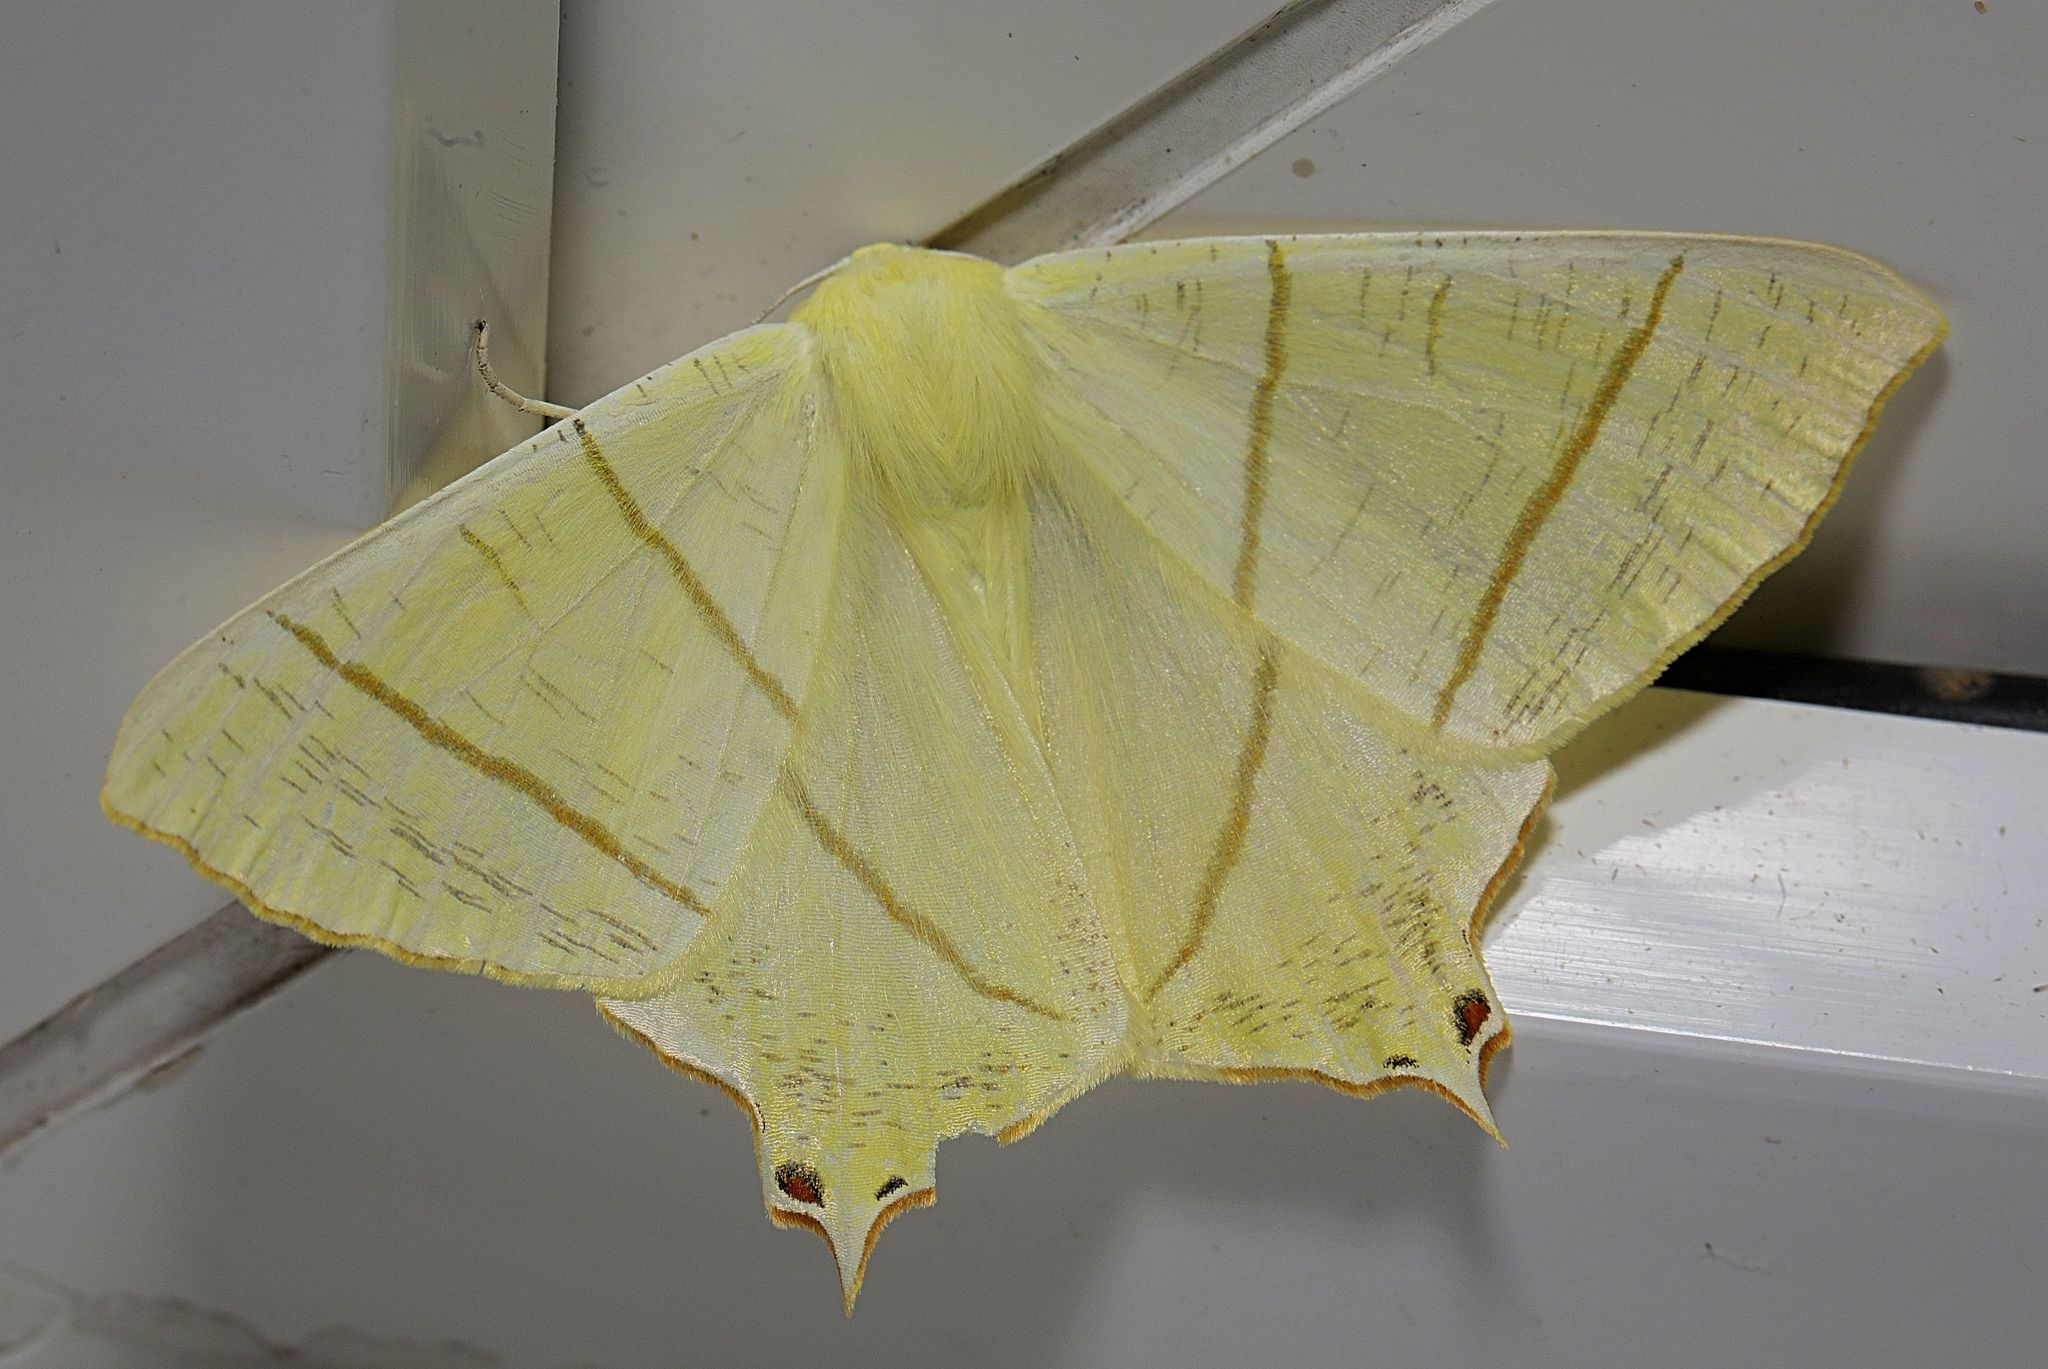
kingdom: Animalia
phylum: Arthropoda
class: Insecta
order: Lepidoptera
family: Geometridae
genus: Ourapteryx
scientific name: Ourapteryx sambucaria
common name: Swallow-tailed moth
